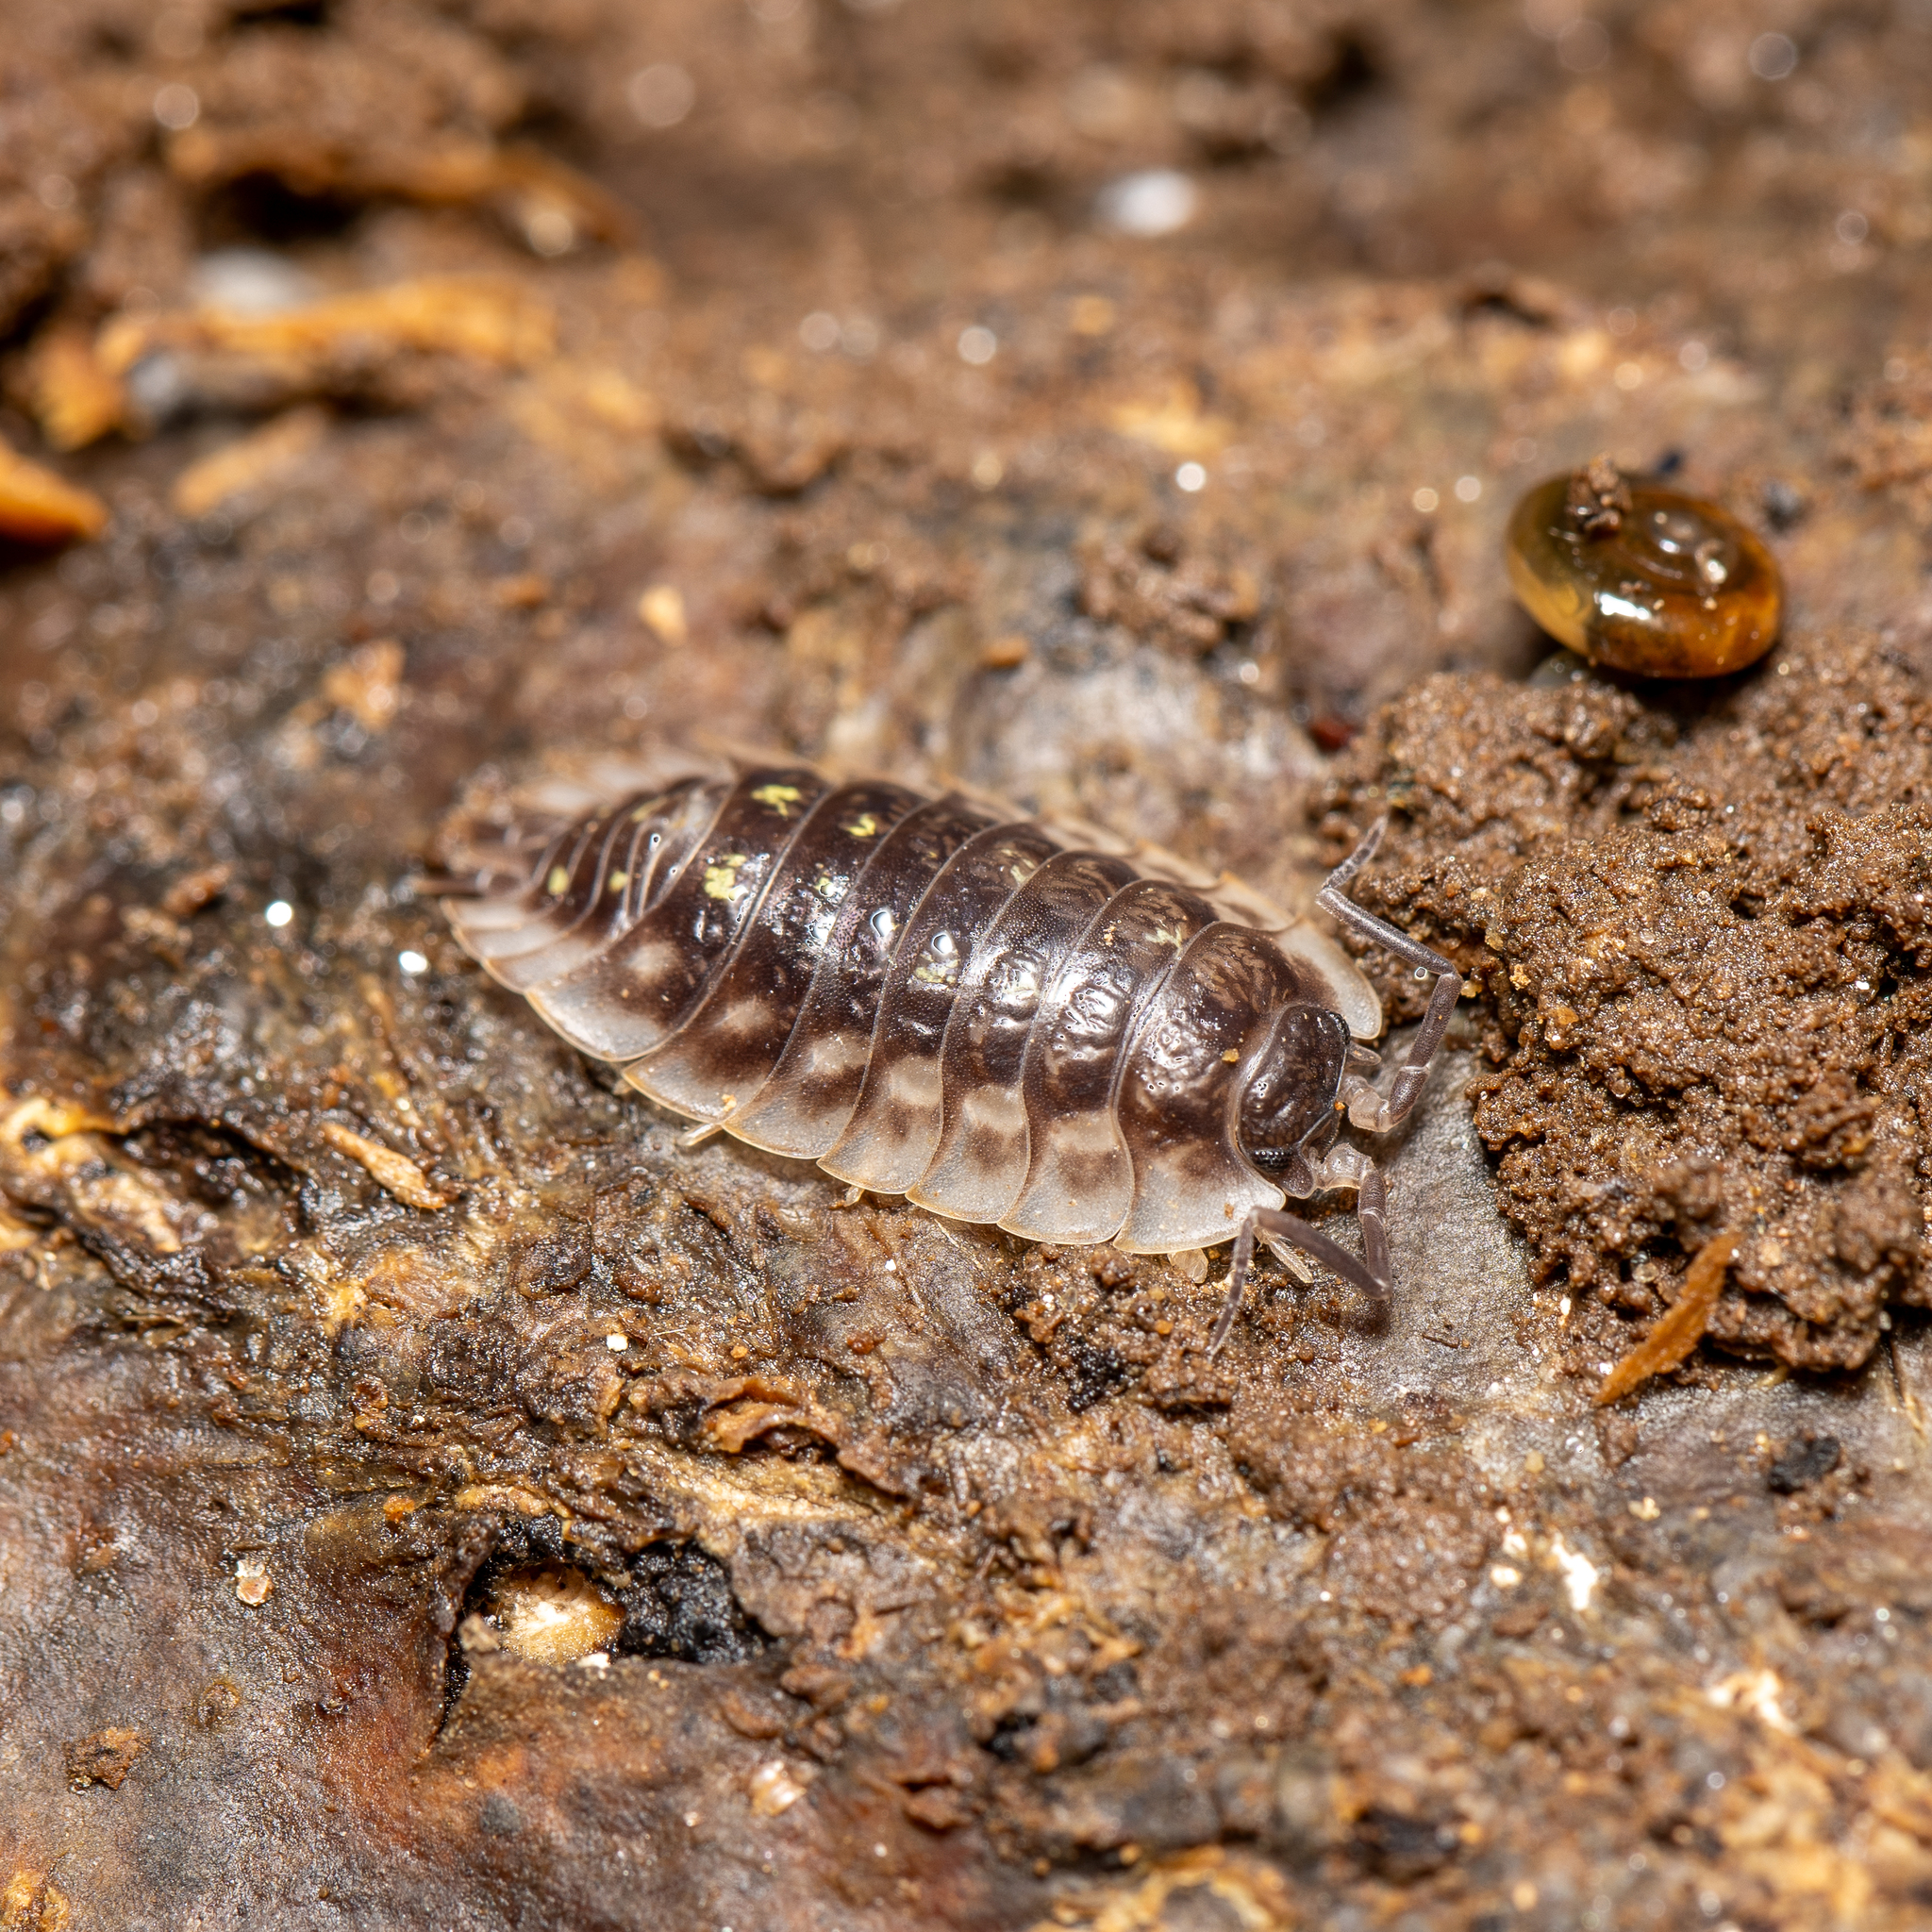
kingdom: Animalia
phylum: Arthropoda
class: Malacostraca
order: Isopoda
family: Oniscidae
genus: Oniscus
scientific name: Oniscus asellus
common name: Common shiny woodlouse
